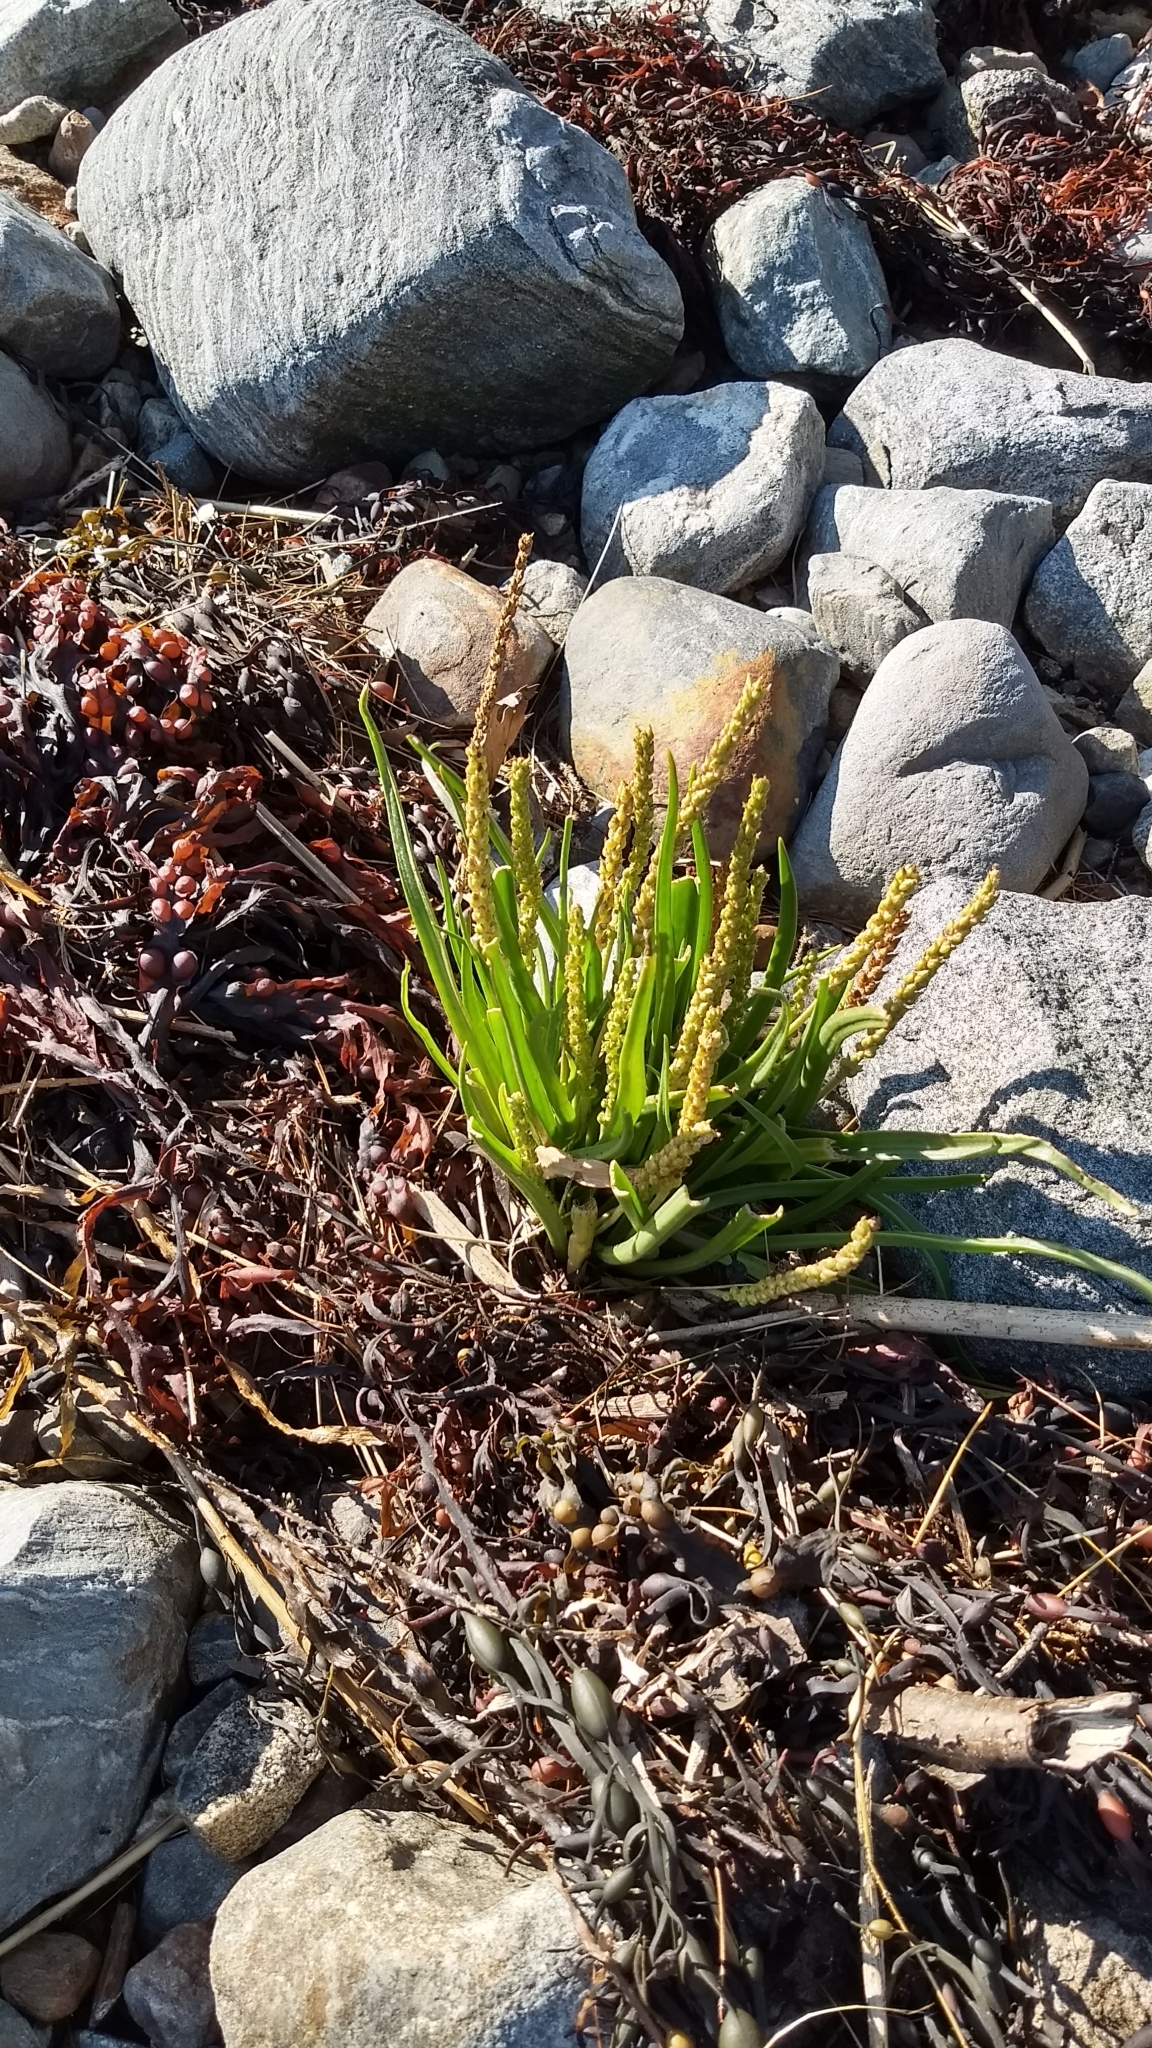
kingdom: Plantae
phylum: Tracheophyta
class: Magnoliopsida
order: Lamiales
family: Plantaginaceae
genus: Plantago
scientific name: Plantago maritima
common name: Sea plantain
